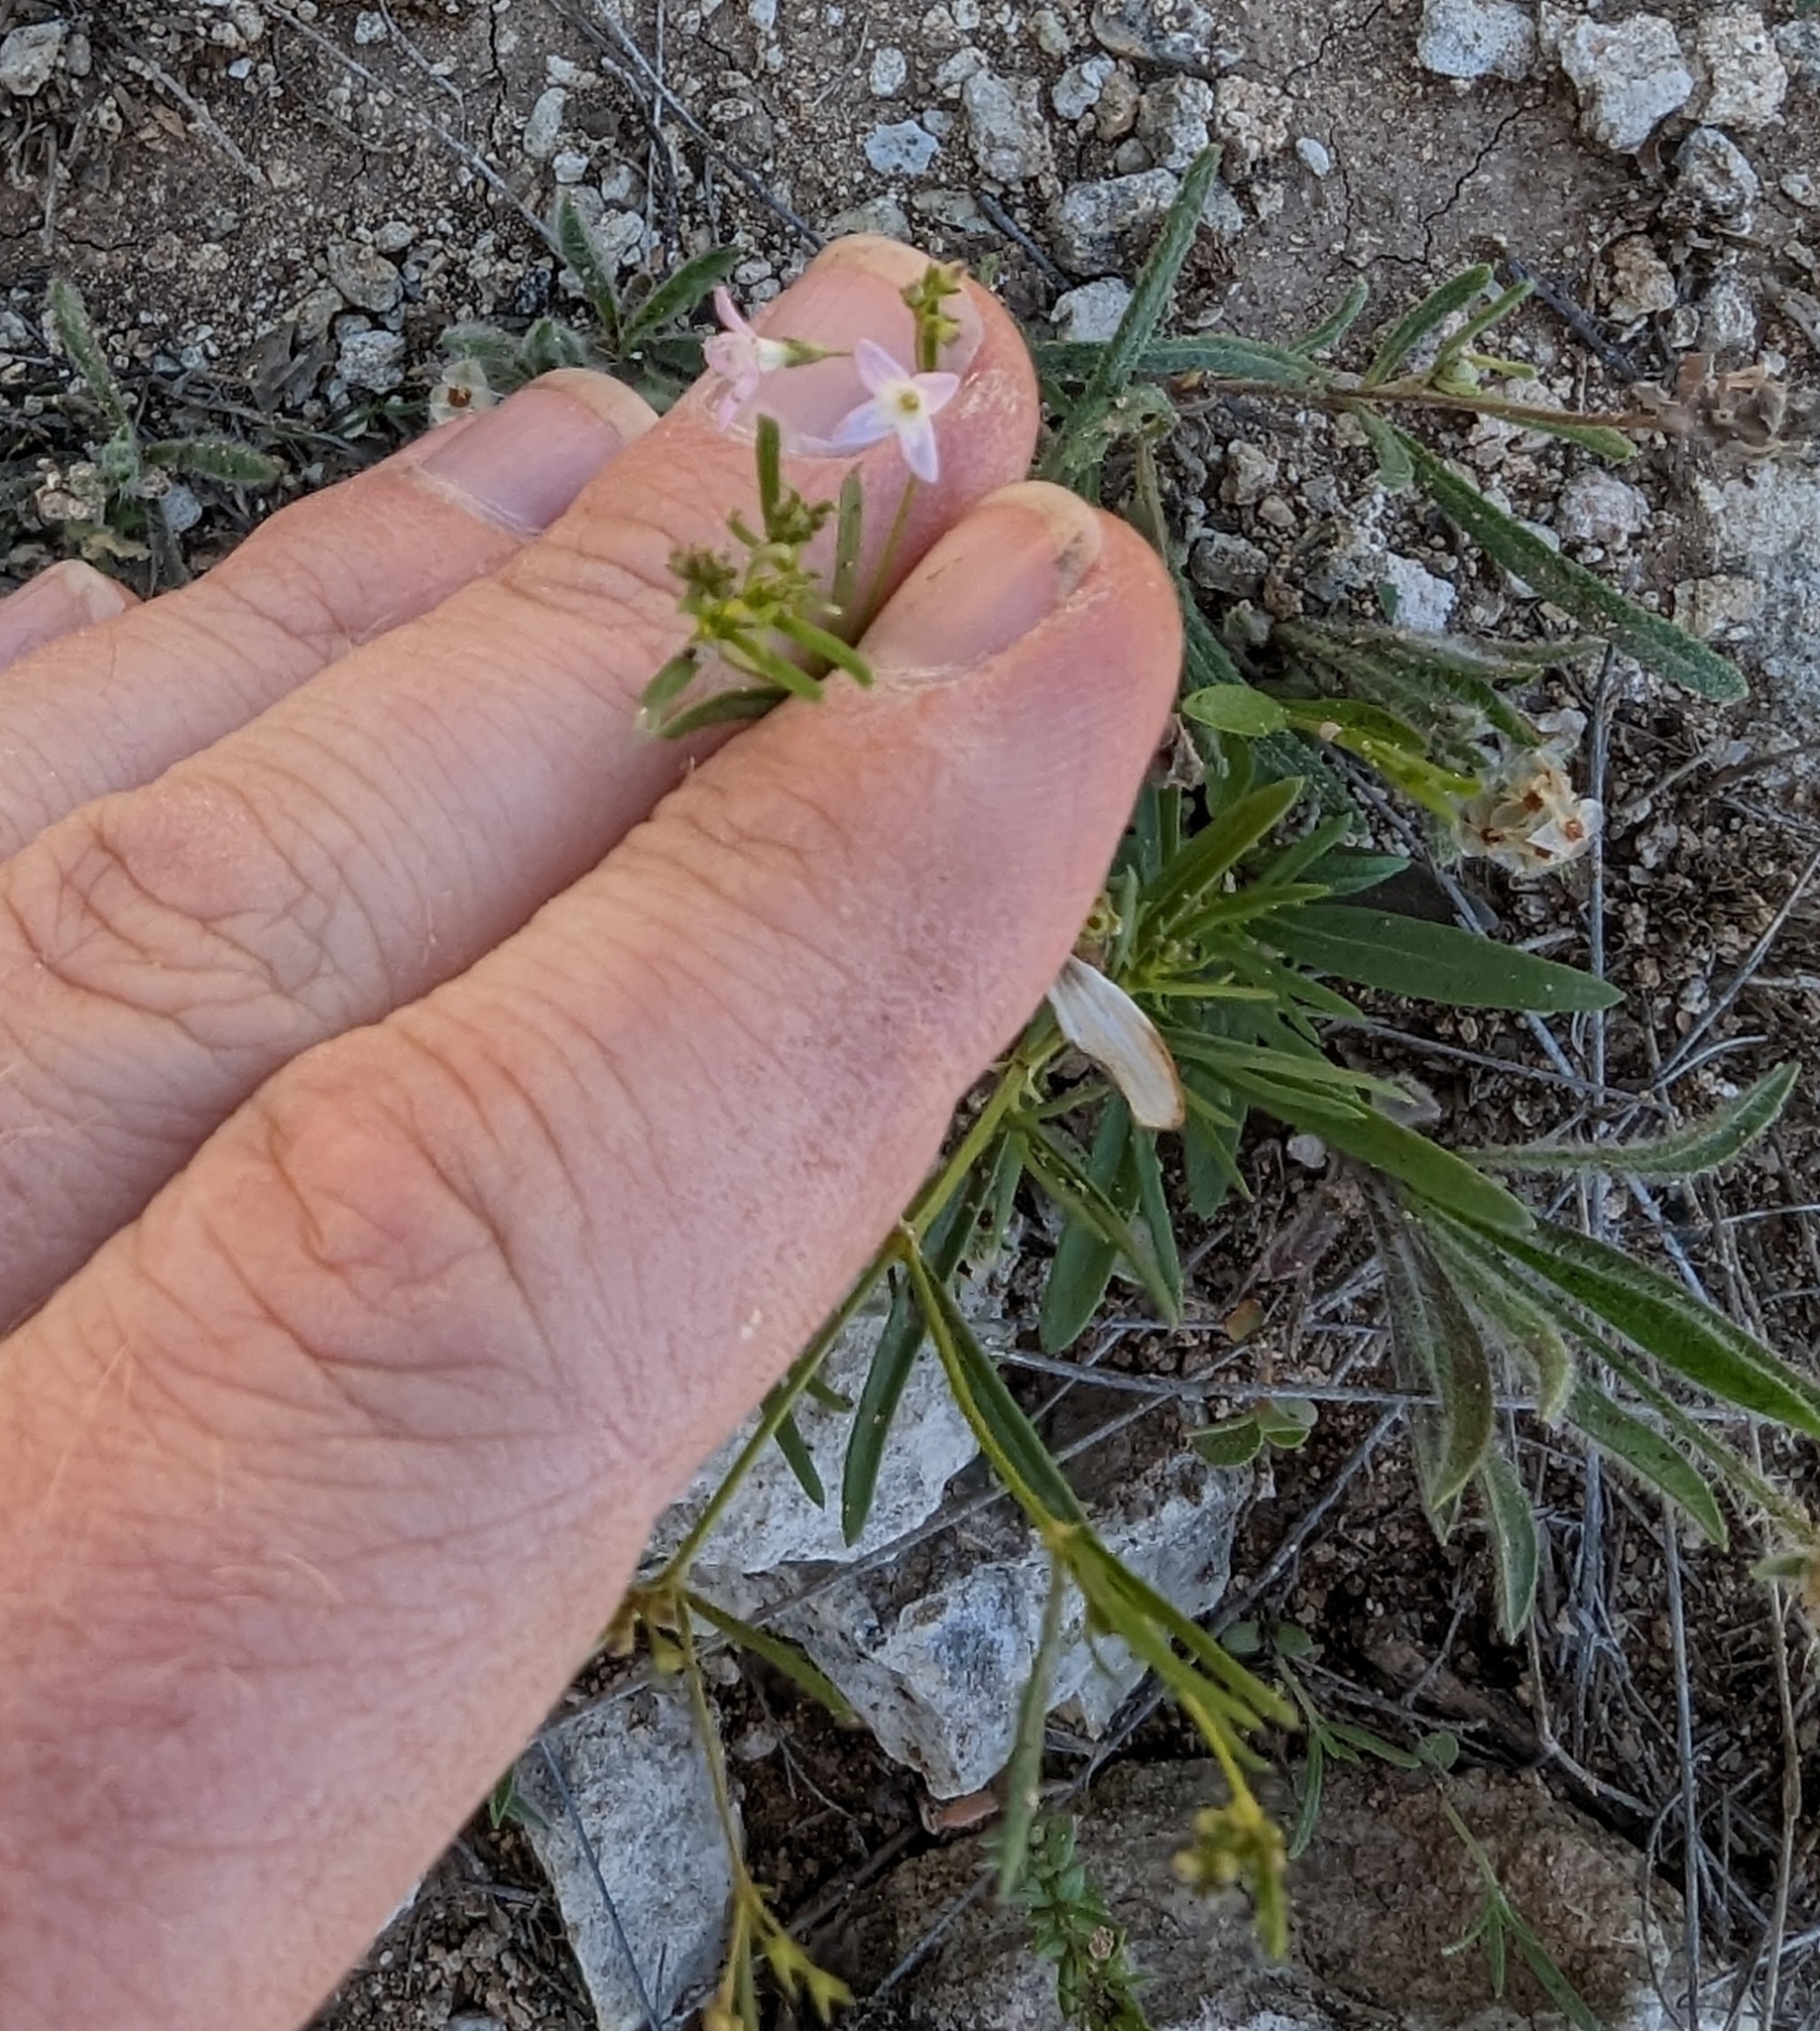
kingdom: Plantae
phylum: Tracheophyta
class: Magnoliopsida
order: Gentianales
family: Rubiaceae
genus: Stenaria
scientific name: Stenaria nigricans
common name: Diamondflowers
